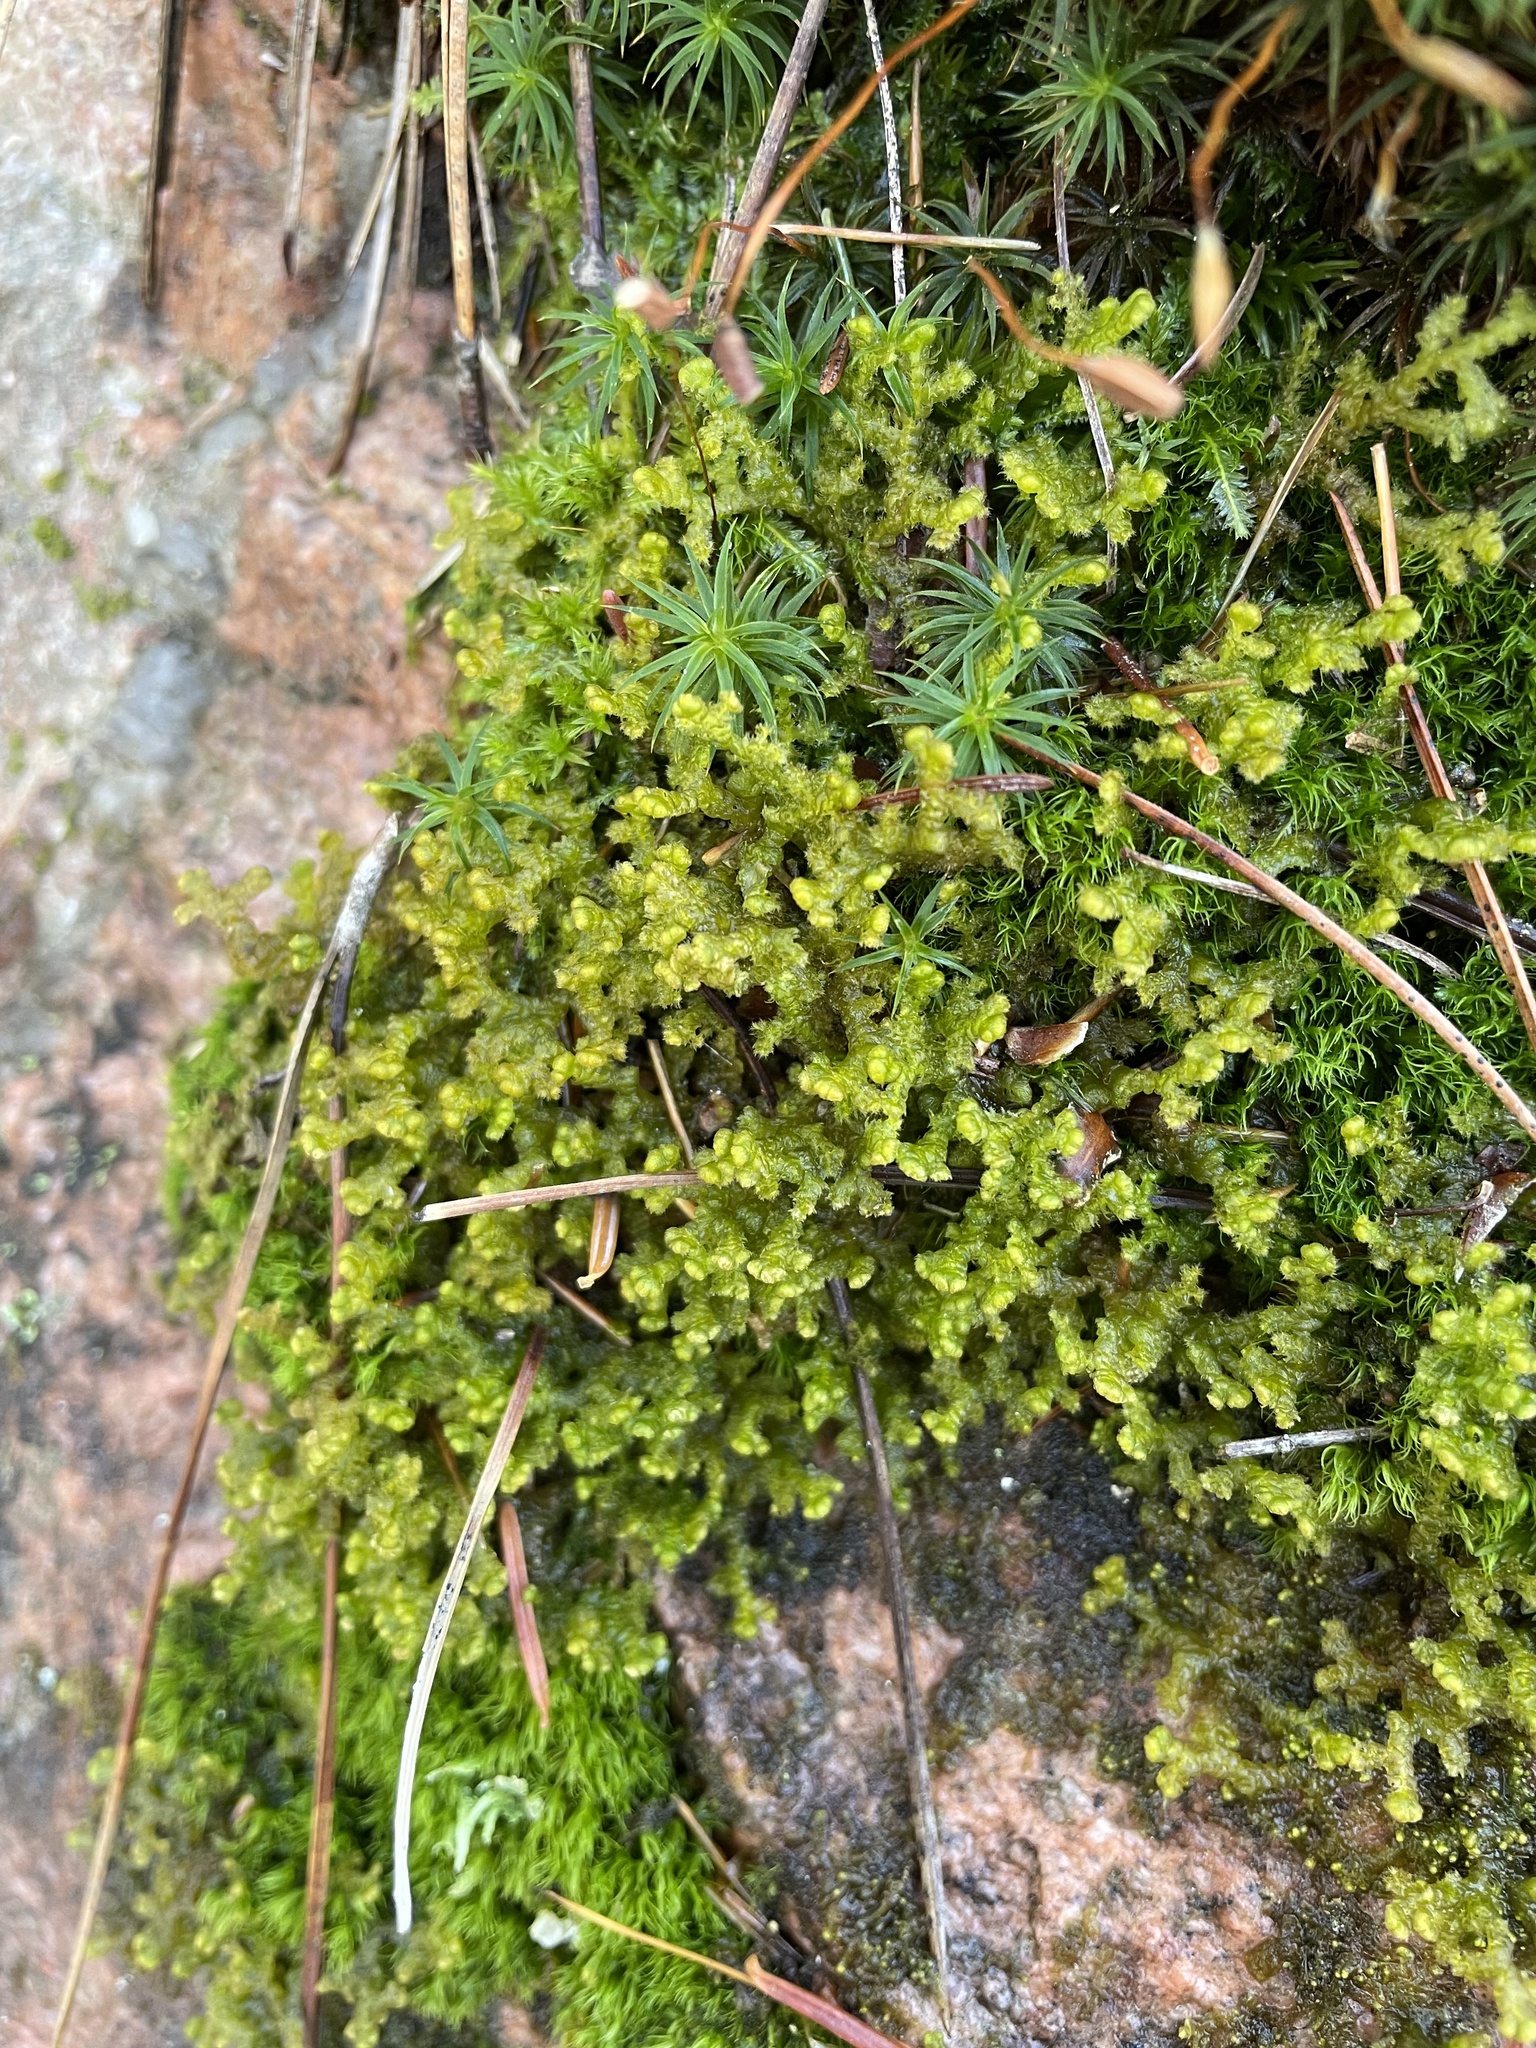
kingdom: Plantae
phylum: Marchantiophyta
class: Jungermanniopsida
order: Ptilidiales
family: Ptilidiaceae
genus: Ptilidium
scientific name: Ptilidium ciliare
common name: Ciliate fringewort
